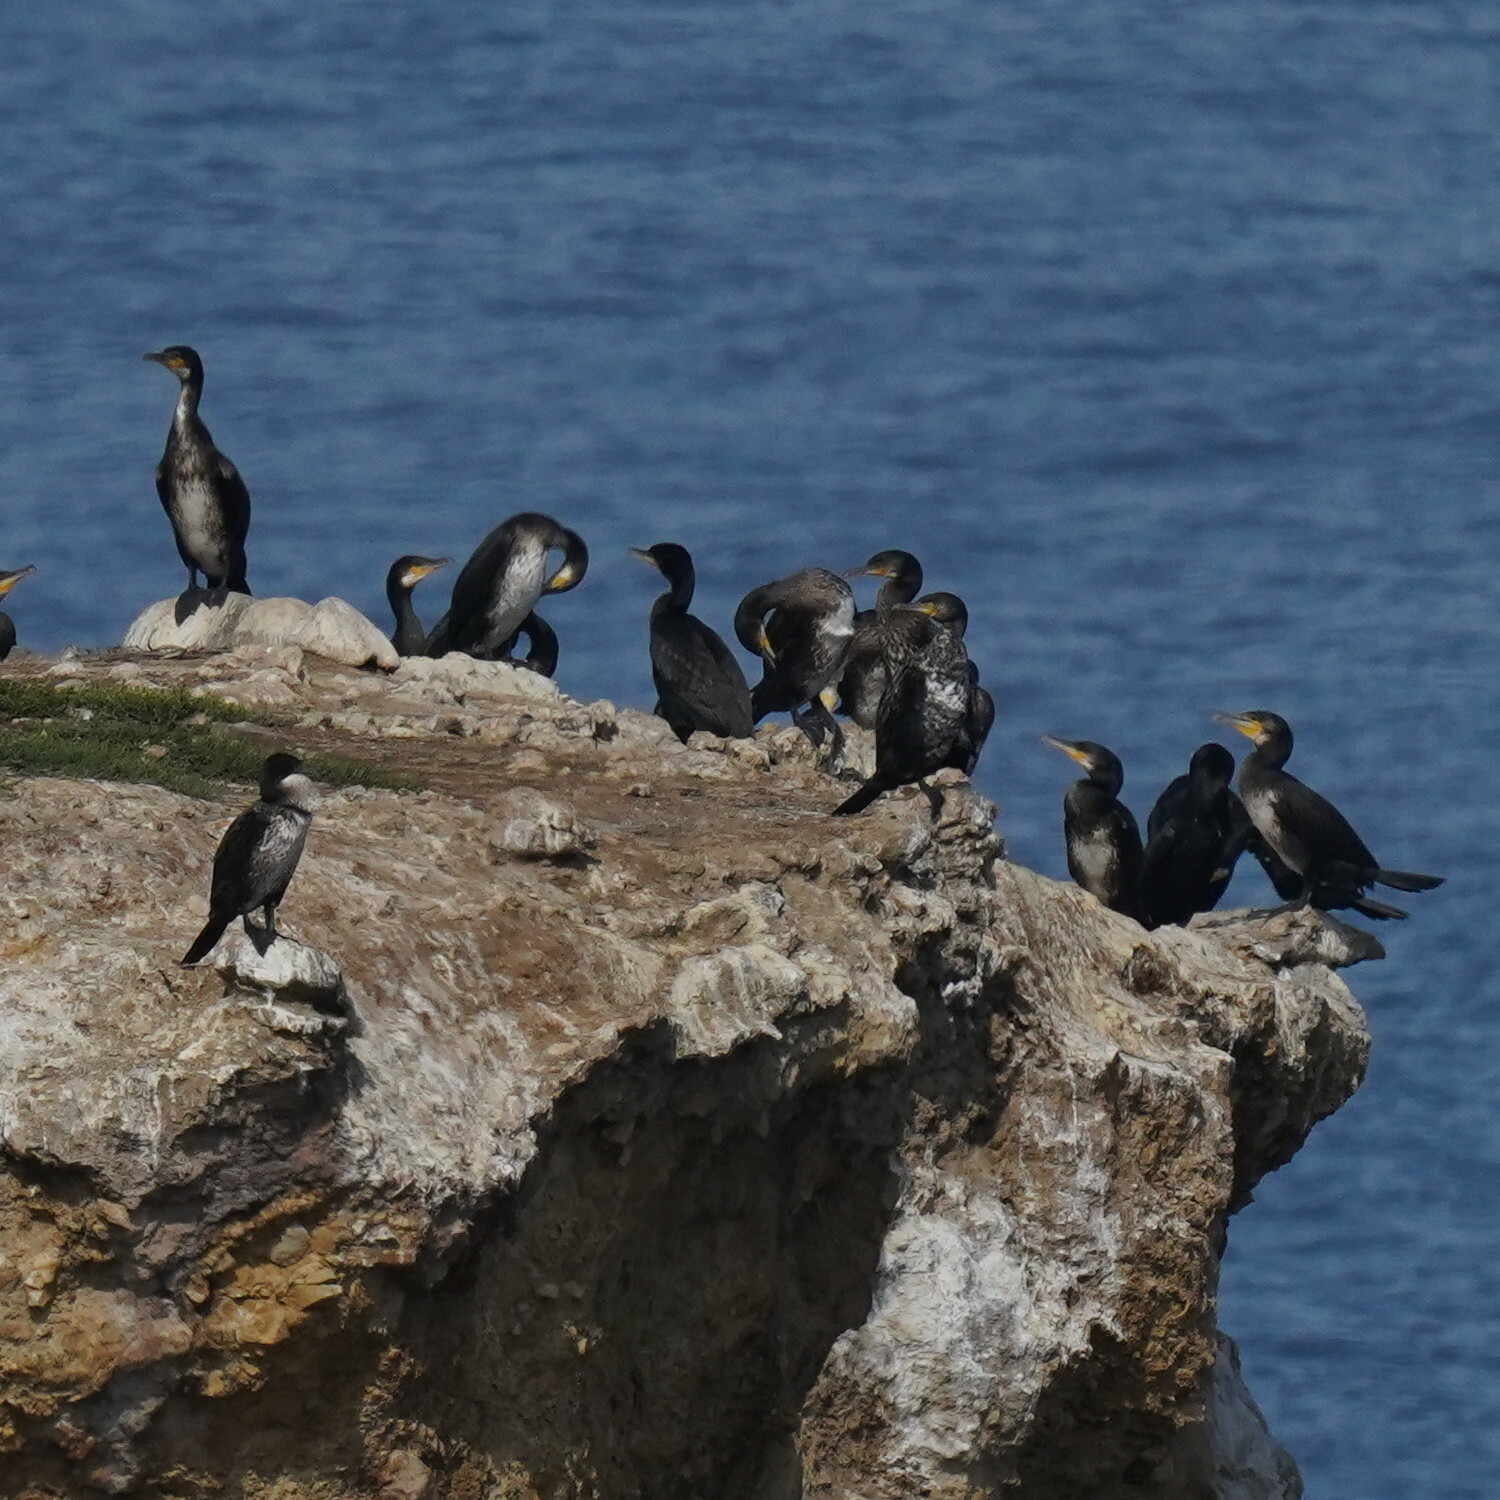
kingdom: Animalia
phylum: Chordata
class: Aves
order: Suliformes
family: Phalacrocoracidae
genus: Phalacrocorax
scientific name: Phalacrocorax carbo
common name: Great cormorant
